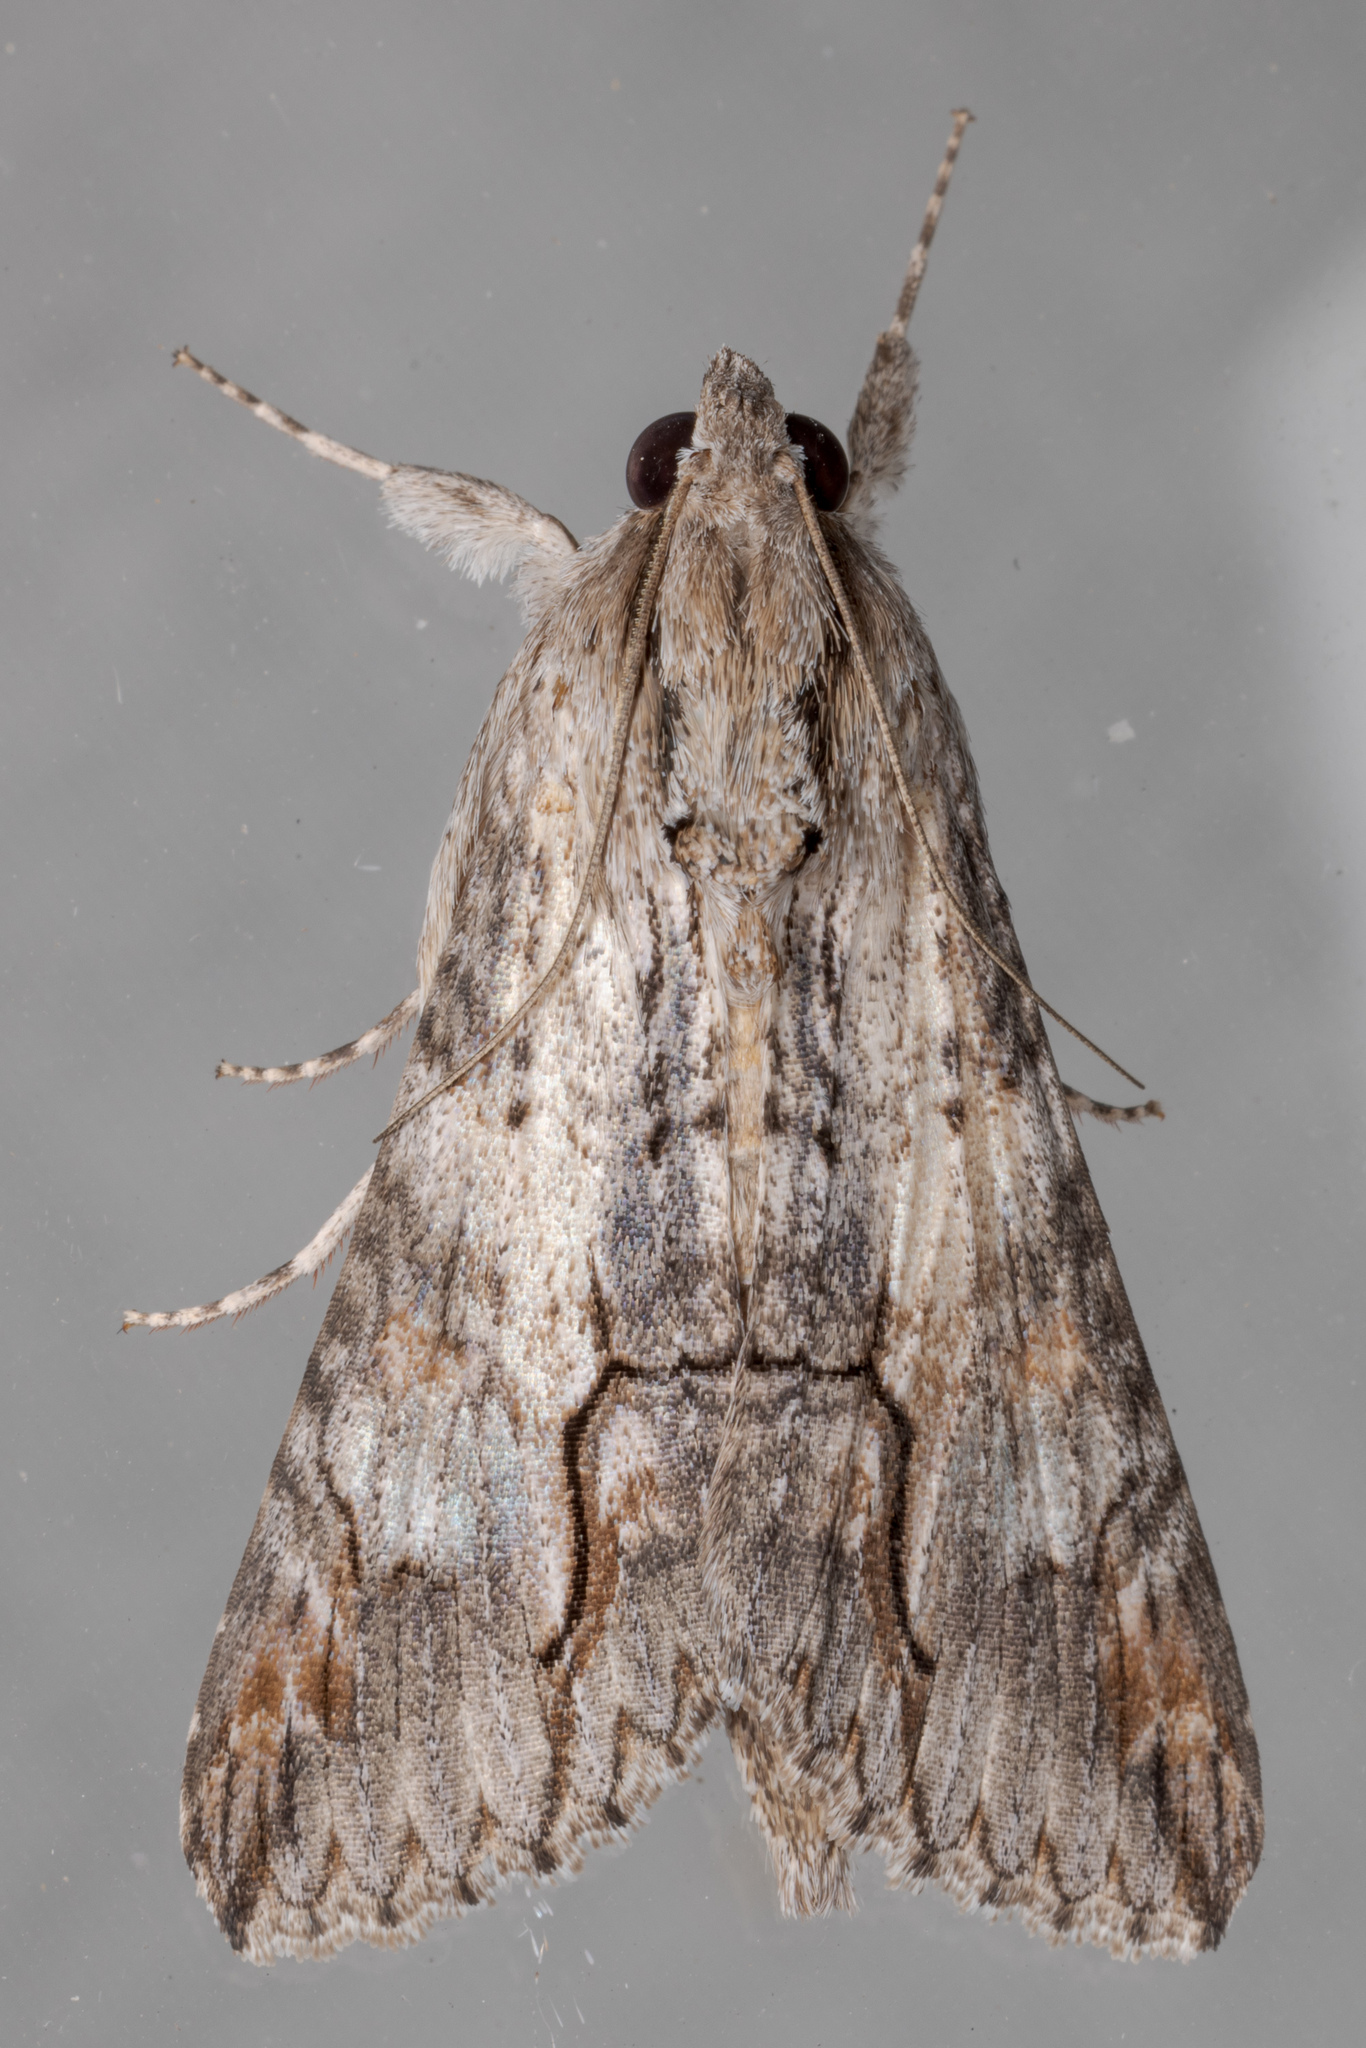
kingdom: Animalia
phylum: Arthropoda
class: Insecta
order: Lepidoptera
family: Erebidae
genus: Melipotis
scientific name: Melipotis acontioides
